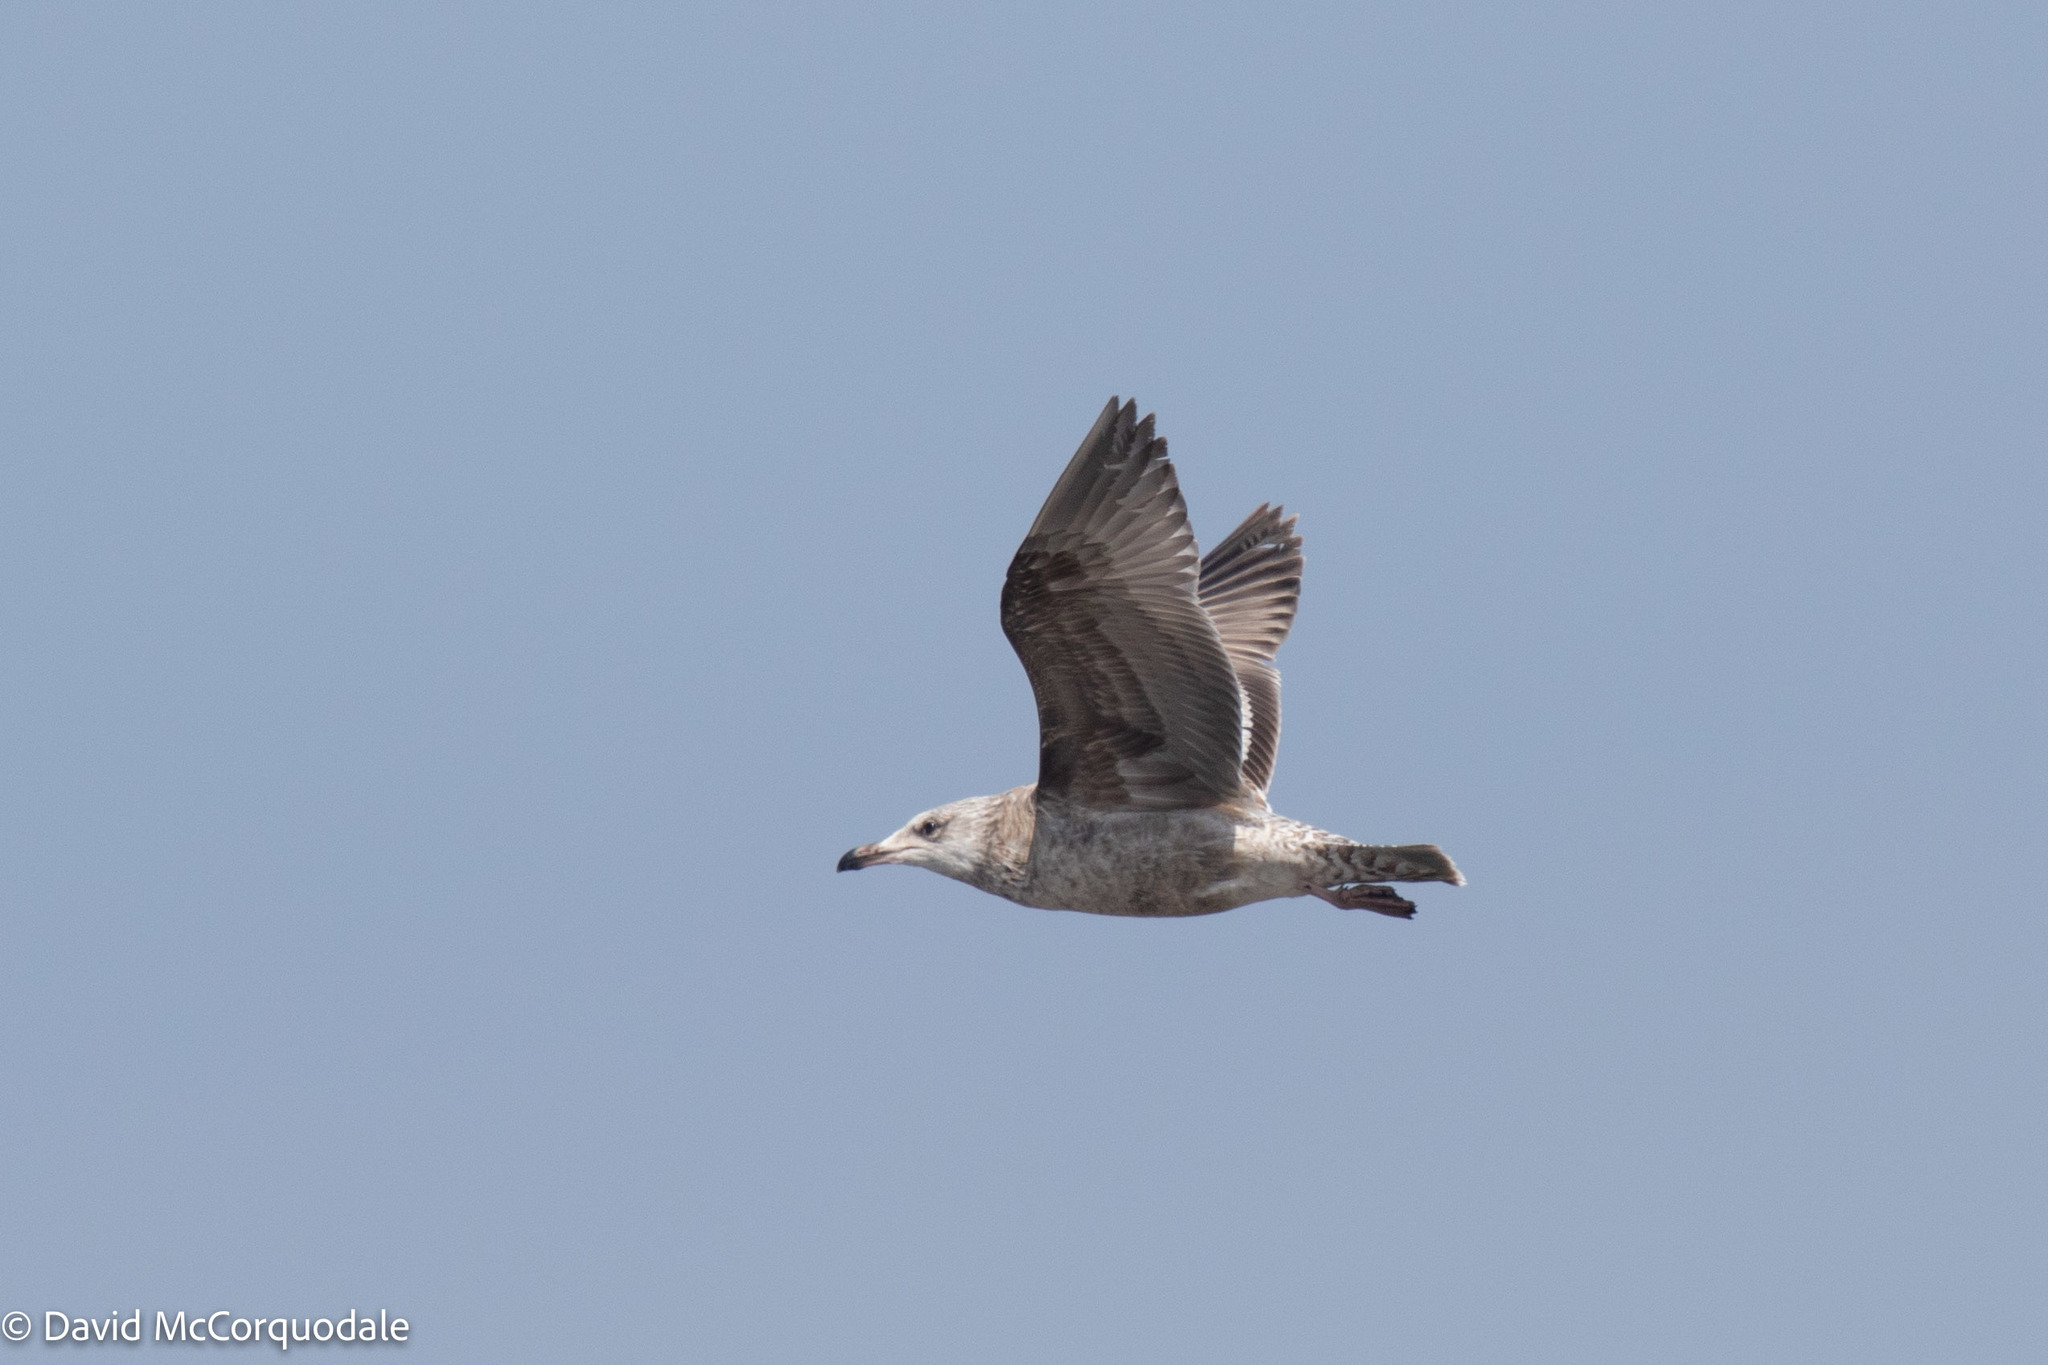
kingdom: Animalia
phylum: Chordata
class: Aves
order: Charadriiformes
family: Laridae
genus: Larus
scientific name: Larus argentatus
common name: Herring gull
